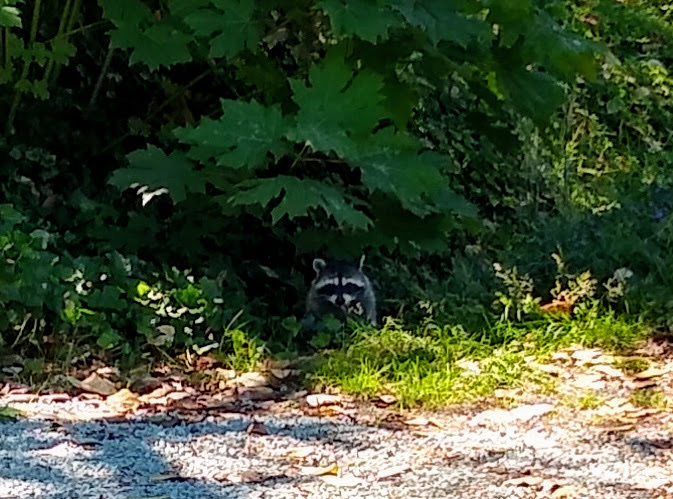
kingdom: Animalia
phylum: Chordata
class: Mammalia
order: Carnivora
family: Procyonidae
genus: Procyon
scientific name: Procyon lotor
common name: Raccoon
